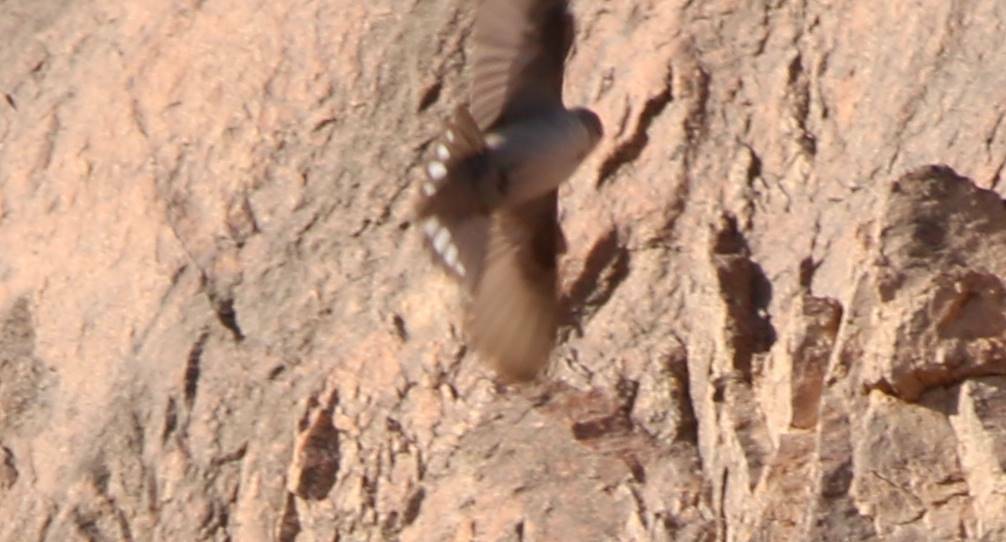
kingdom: Animalia
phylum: Chordata
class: Aves
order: Passeriformes
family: Hirundinidae
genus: Ptyonoprogne
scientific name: Ptyonoprogne fuligula
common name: Rock martin
